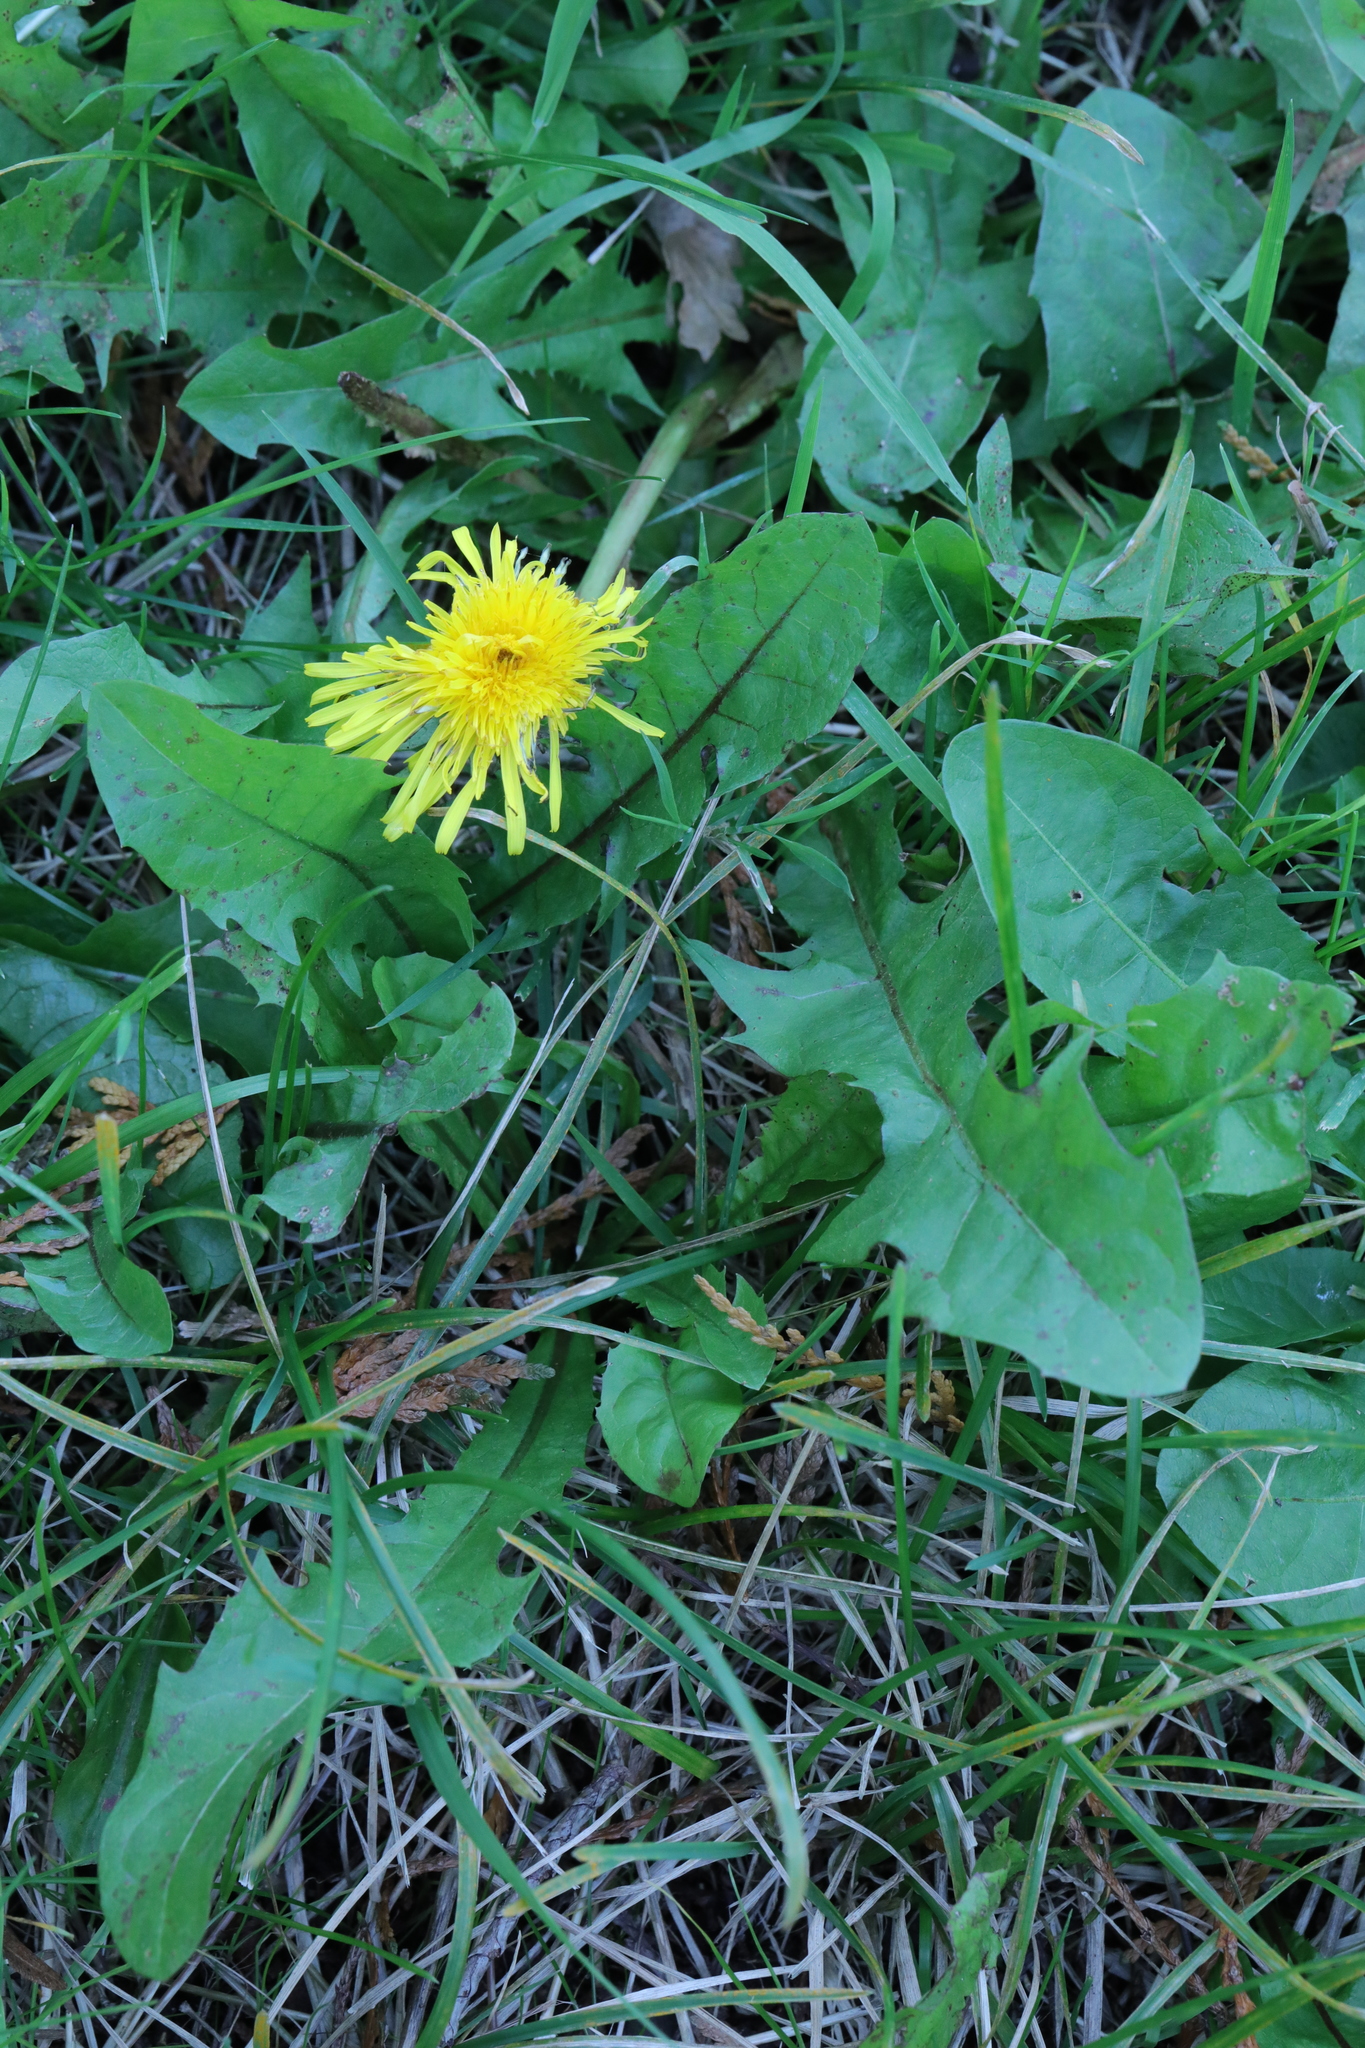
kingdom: Plantae
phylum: Tracheophyta
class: Magnoliopsida
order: Asterales
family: Asteraceae
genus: Taraxacum
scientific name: Taraxacum officinale
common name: Common dandelion
